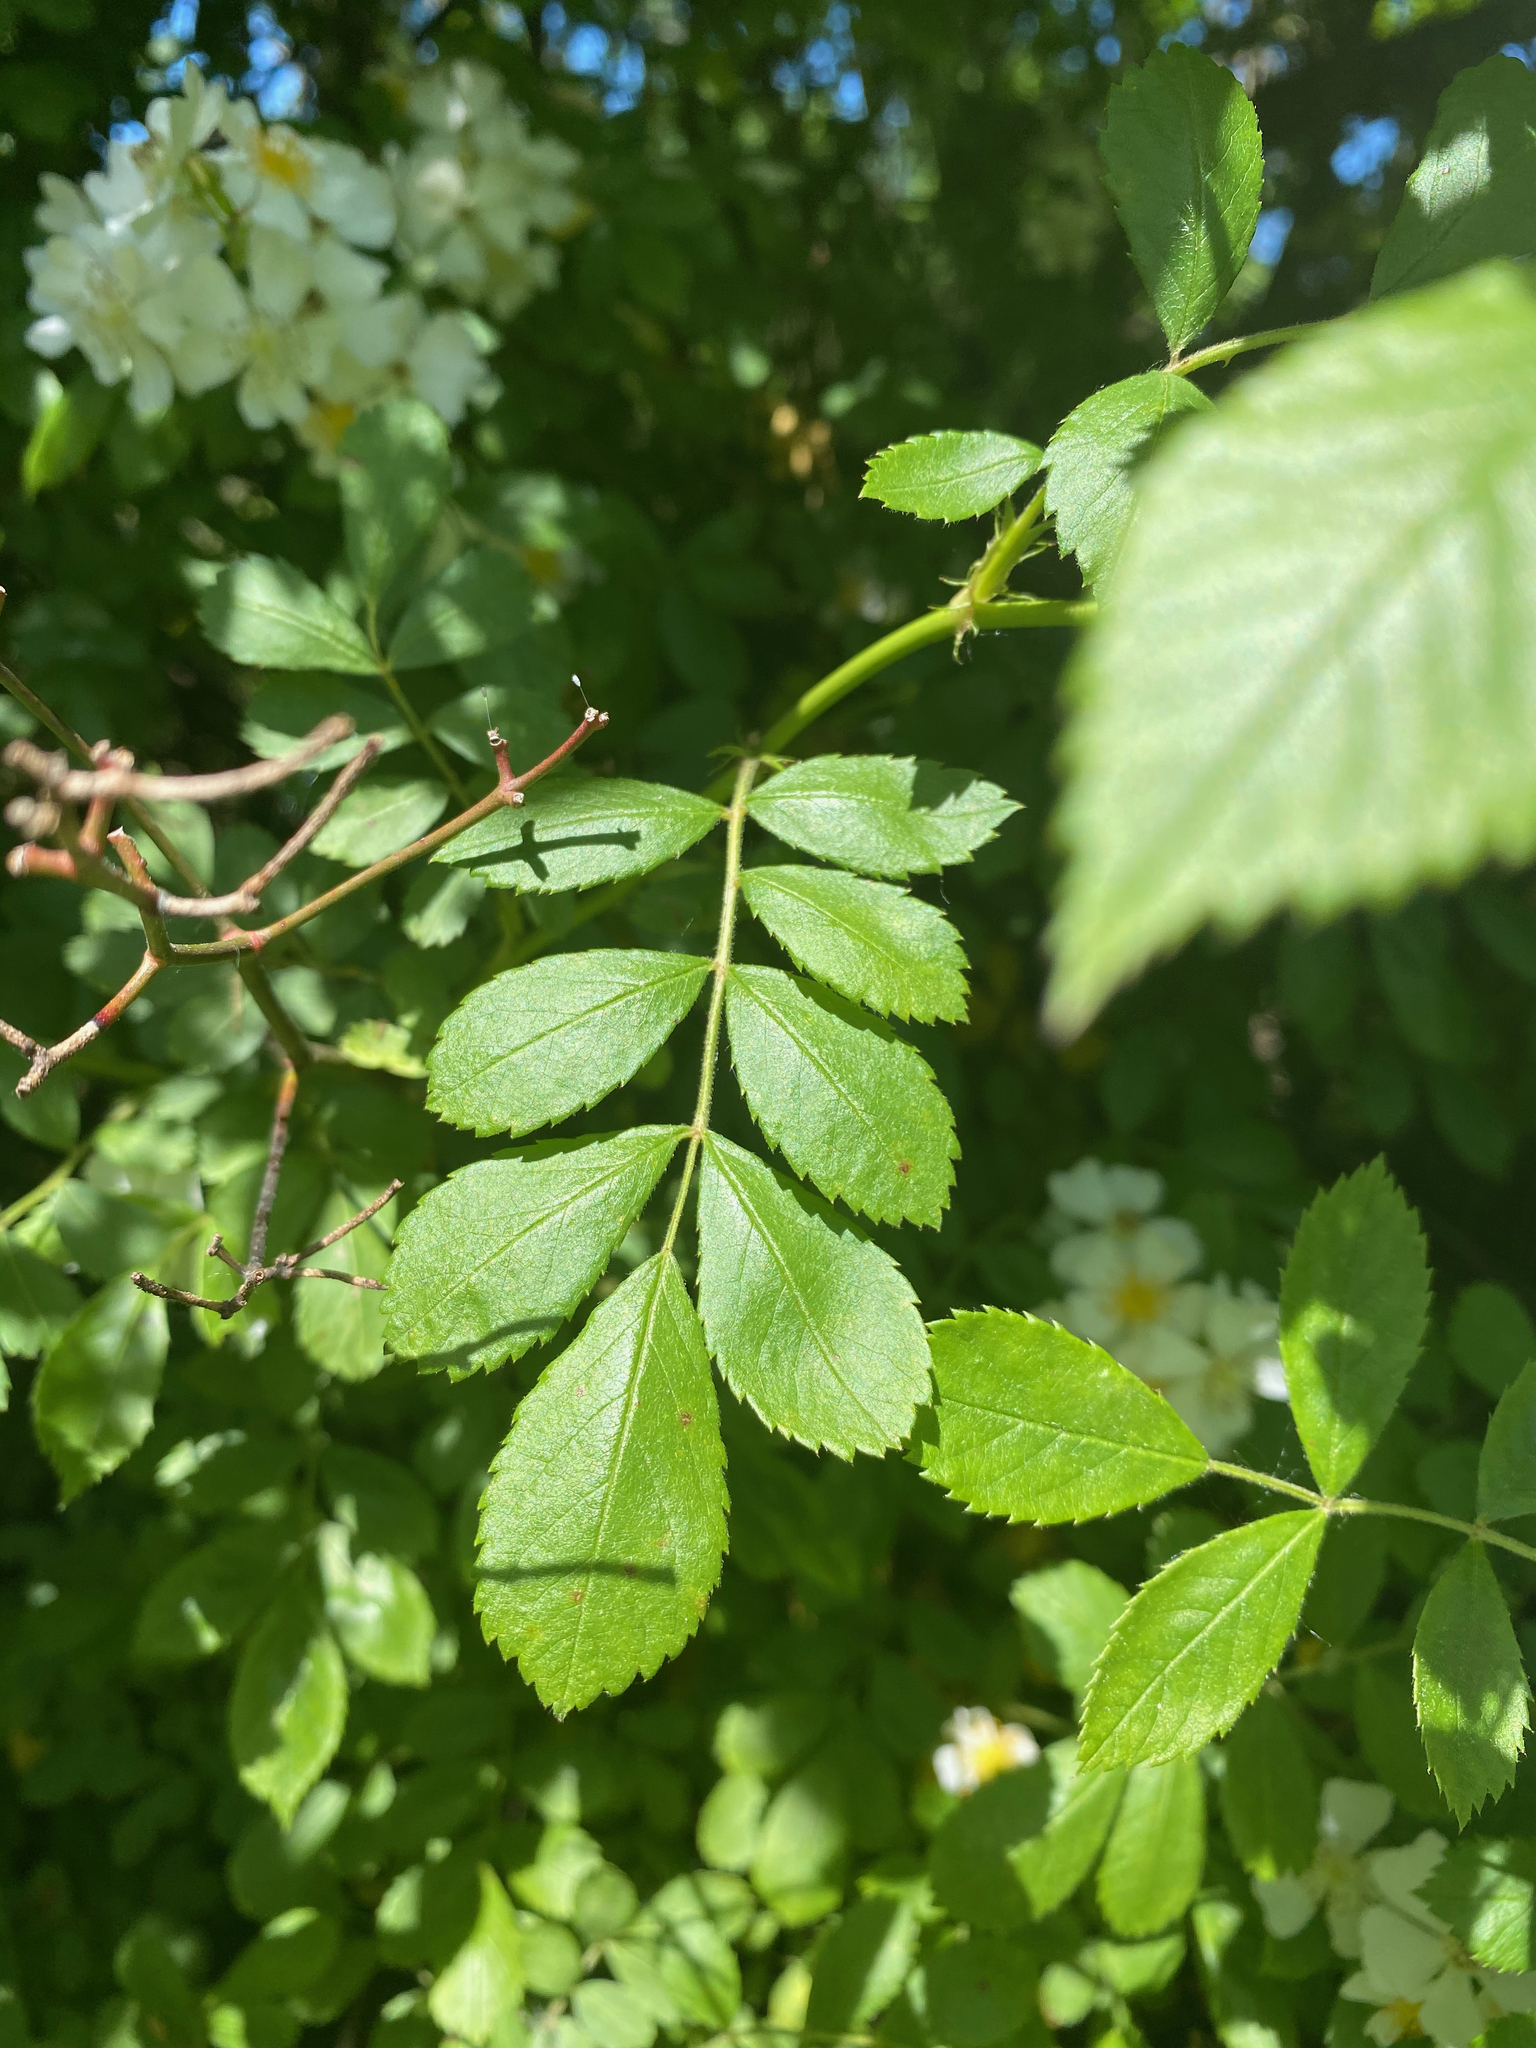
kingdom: Plantae
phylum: Tracheophyta
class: Magnoliopsida
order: Rosales
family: Rosaceae
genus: Rosa
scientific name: Rosa multiflora
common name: Multiflora rose
